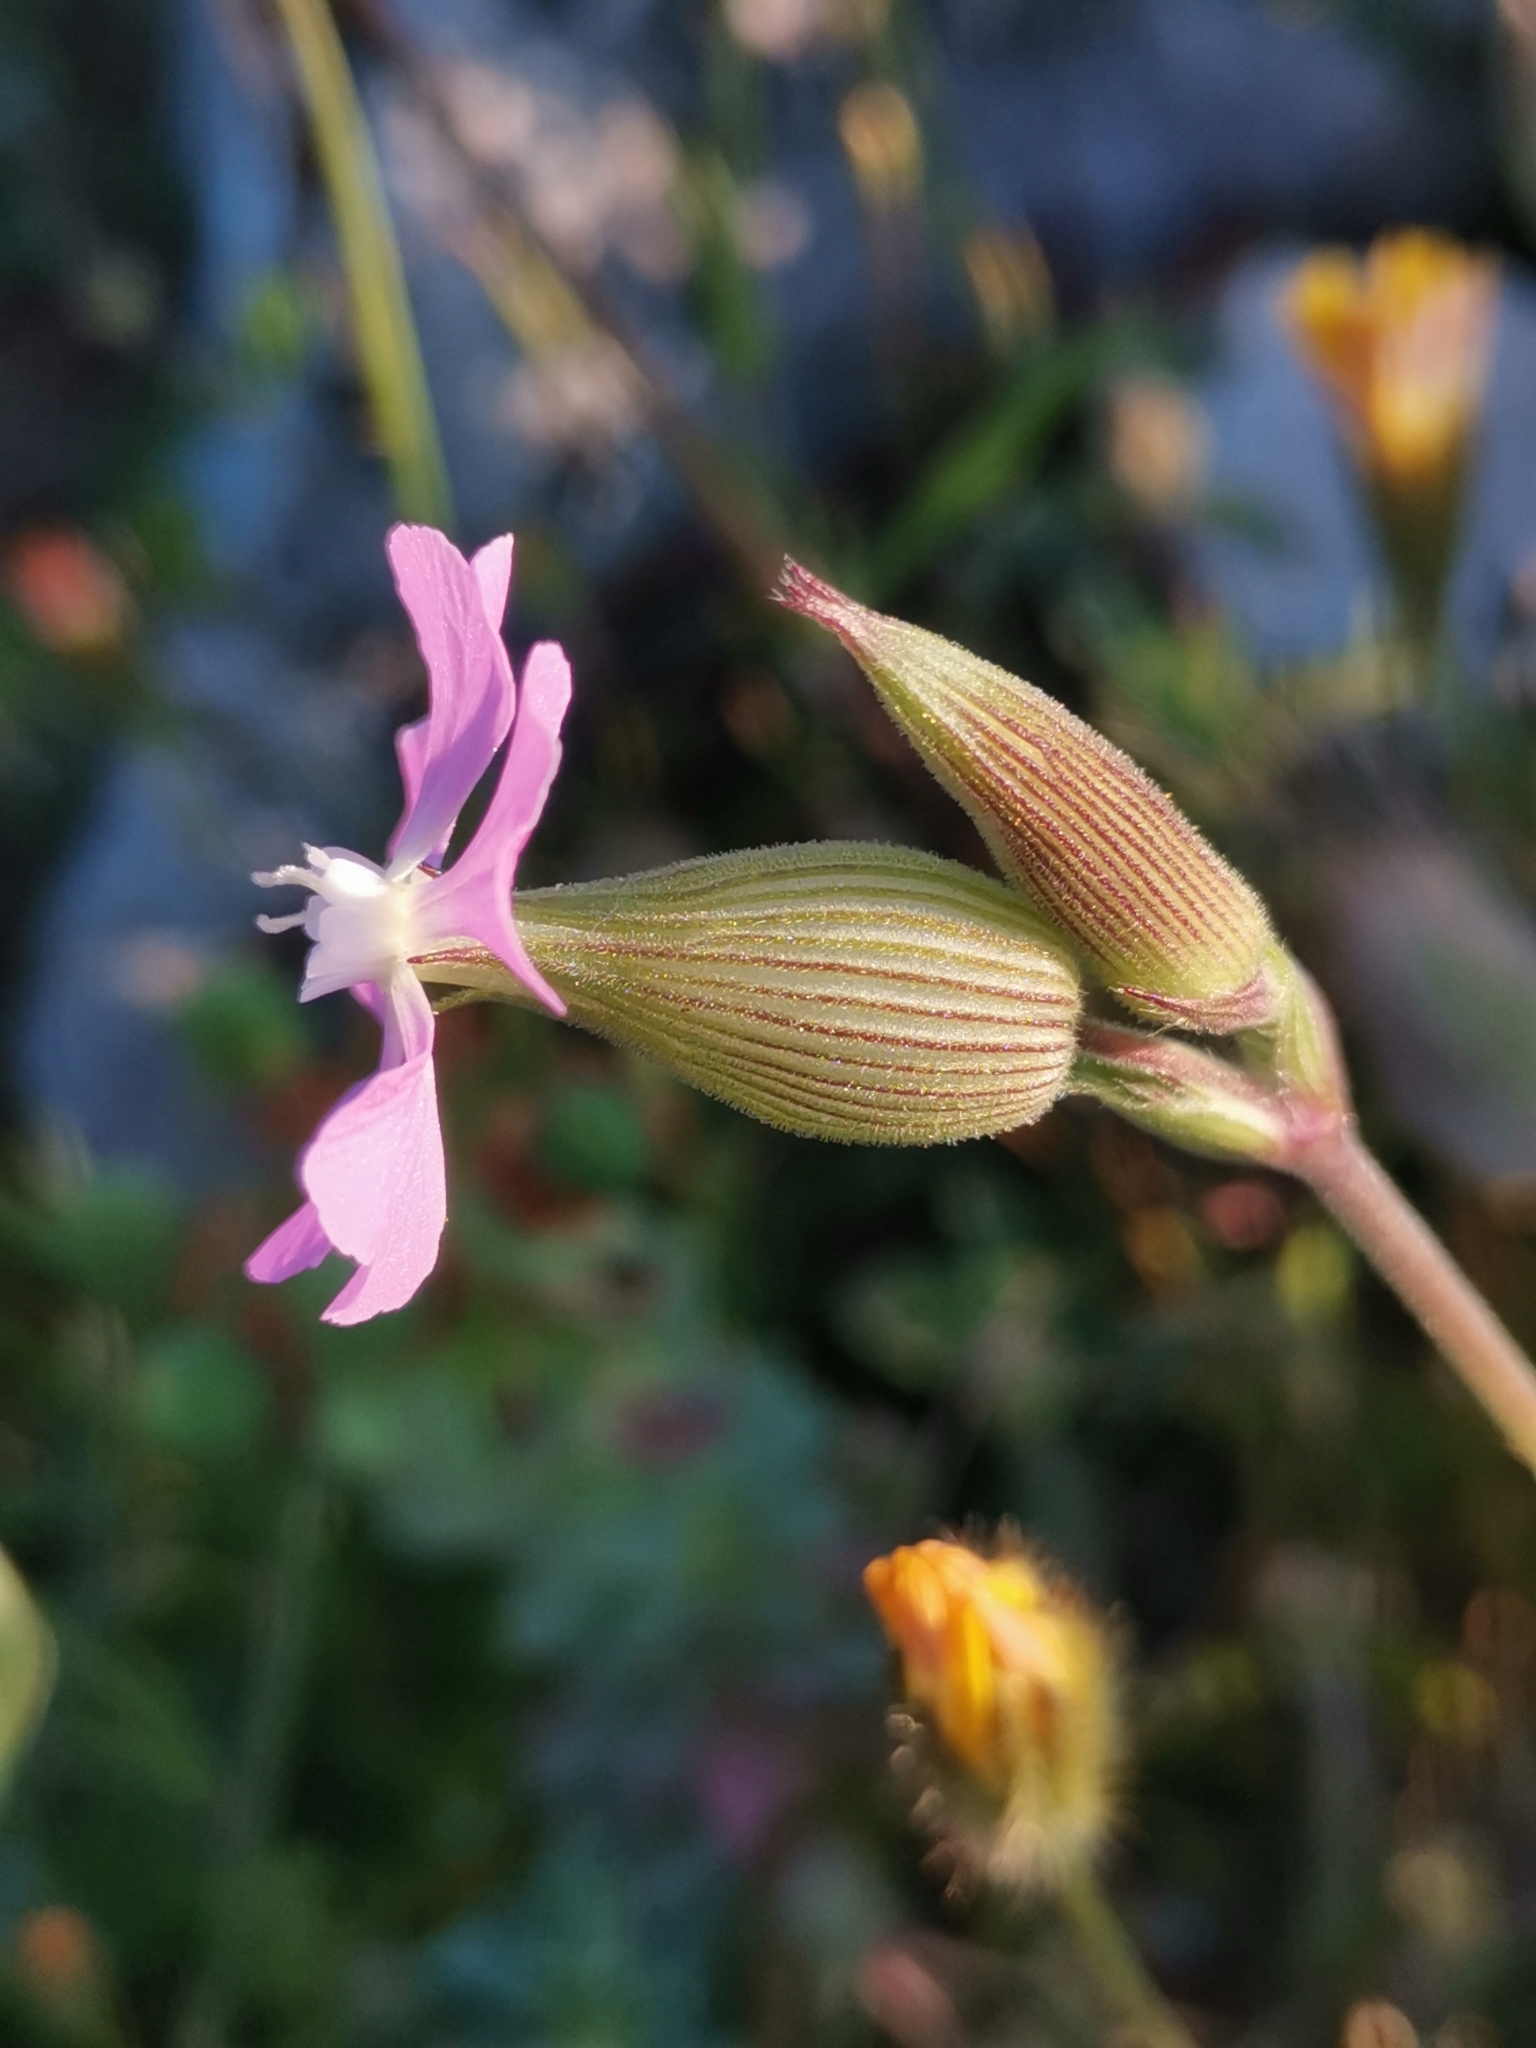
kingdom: Plantae
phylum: Tracheophyta
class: Magnoliopsida
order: Caryophyllales
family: Caryophyllaceae
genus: Silene
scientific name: Silene conica
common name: Sand catchfly
